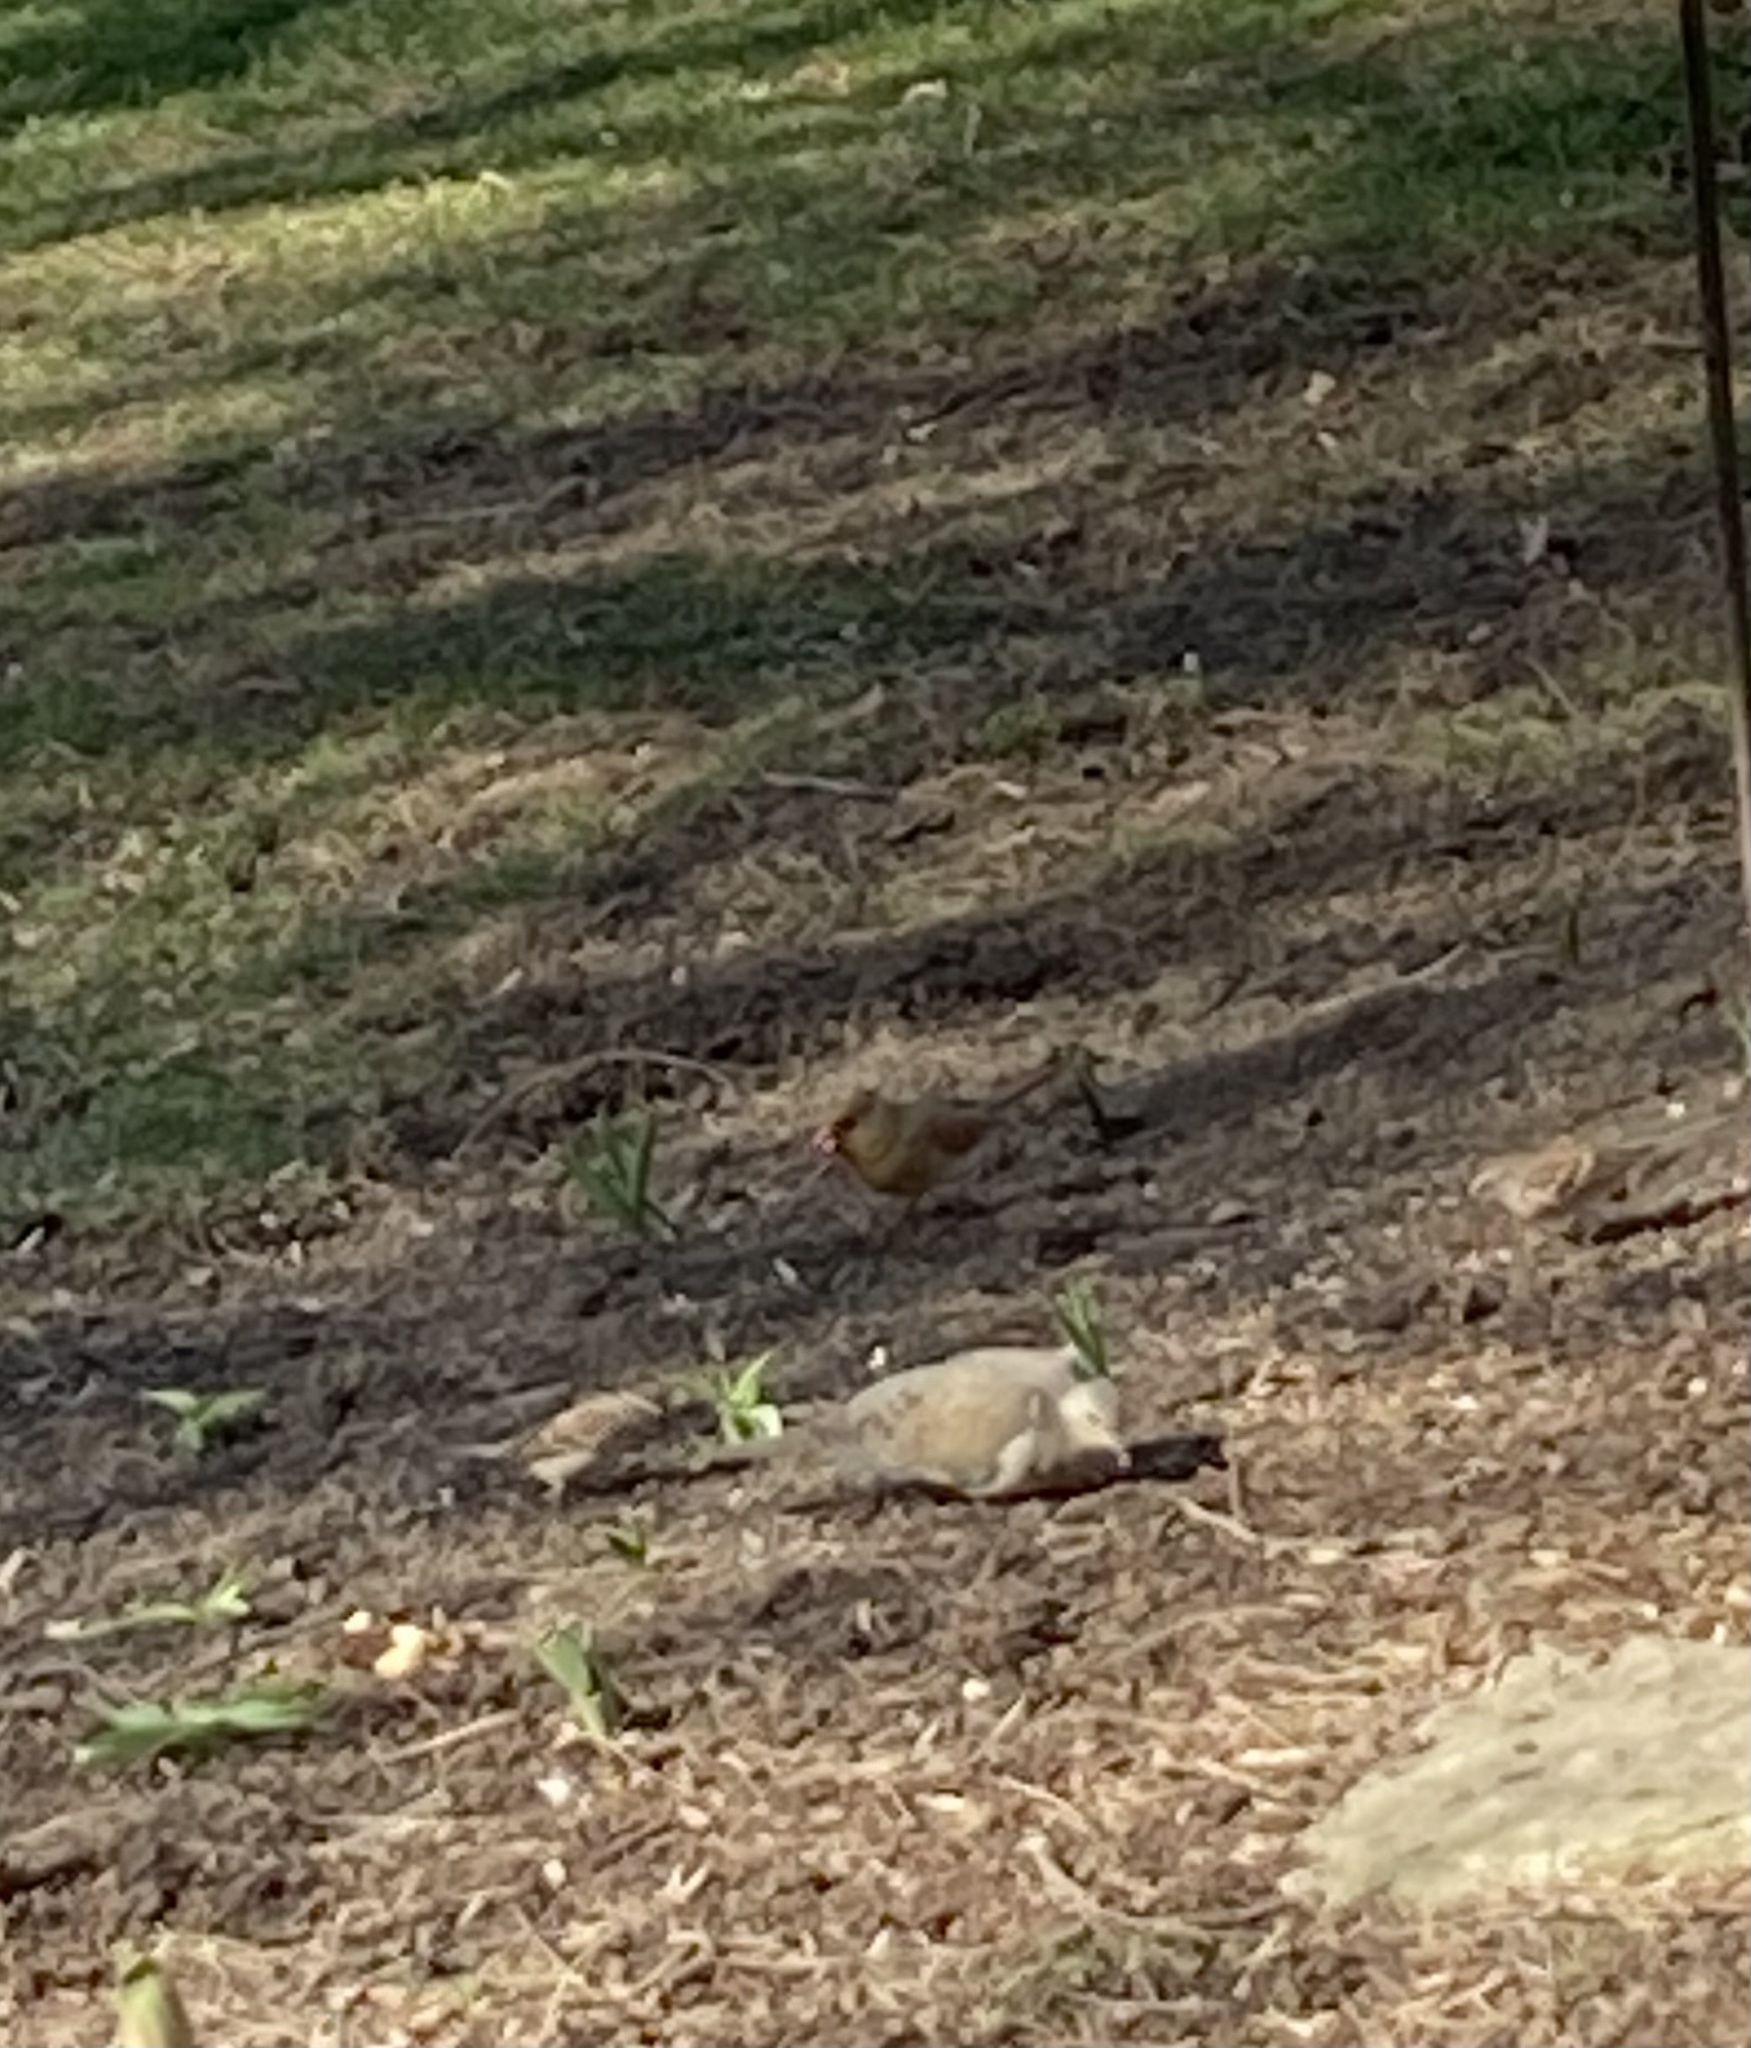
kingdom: Animalia
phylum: Chordata
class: Aves
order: Passeriformes
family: Cardinalidae
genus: Cardinalis
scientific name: Cardinalis cardinalis
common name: Northern cardinal
